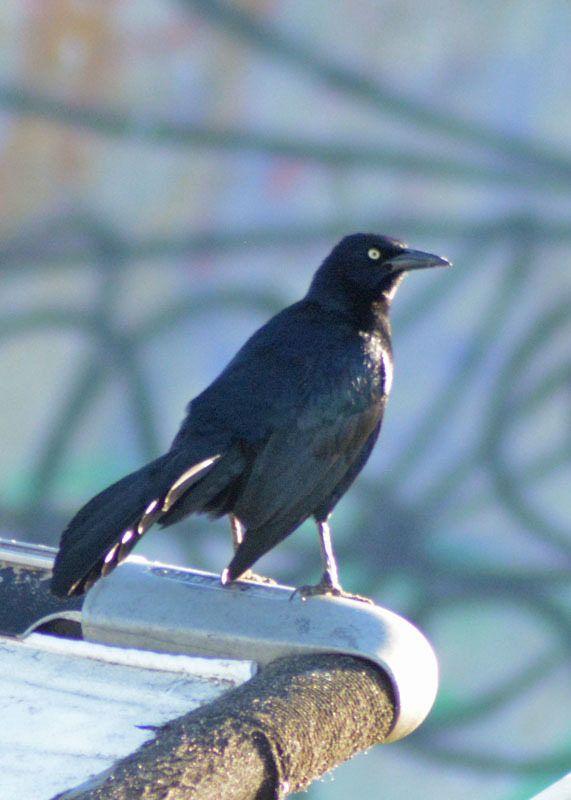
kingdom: Animalia
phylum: Chordata
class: Aves
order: Passeriformes
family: Icteridae
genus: Quiscalus
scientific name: Quiscalus mexicanus
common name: Great-tailed grackle
